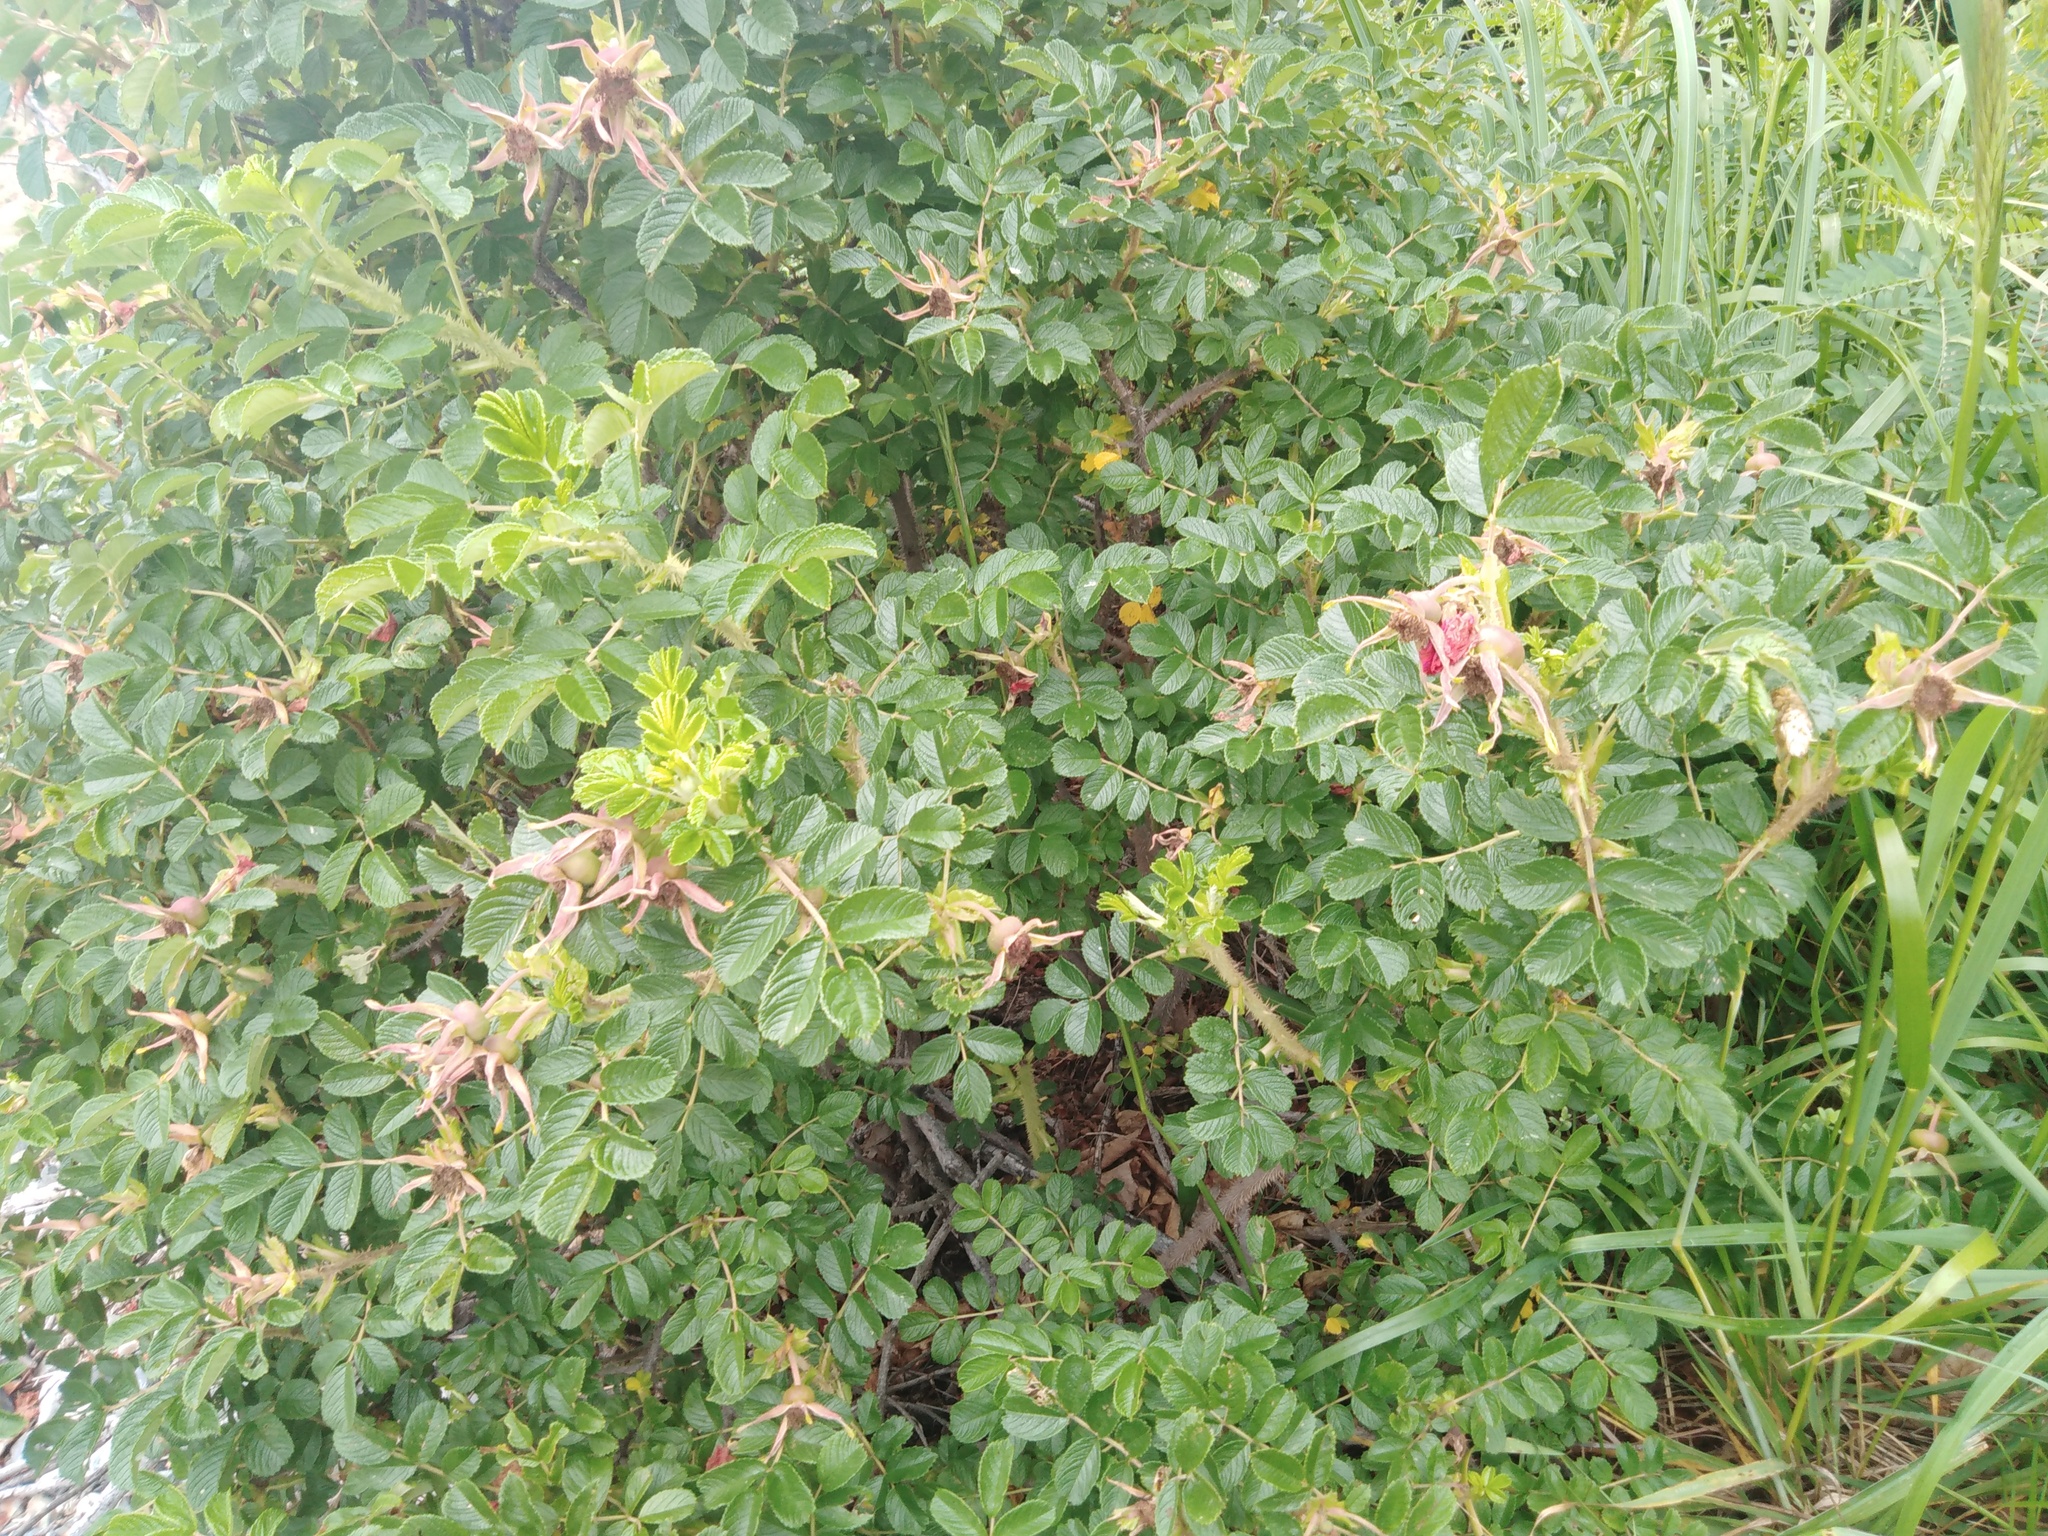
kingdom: Plantae
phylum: Tracheophyta
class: Magnoliopsida
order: Rosales
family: Rosaceae
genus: Rosa
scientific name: Rosa rugosa
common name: Japanese rose
